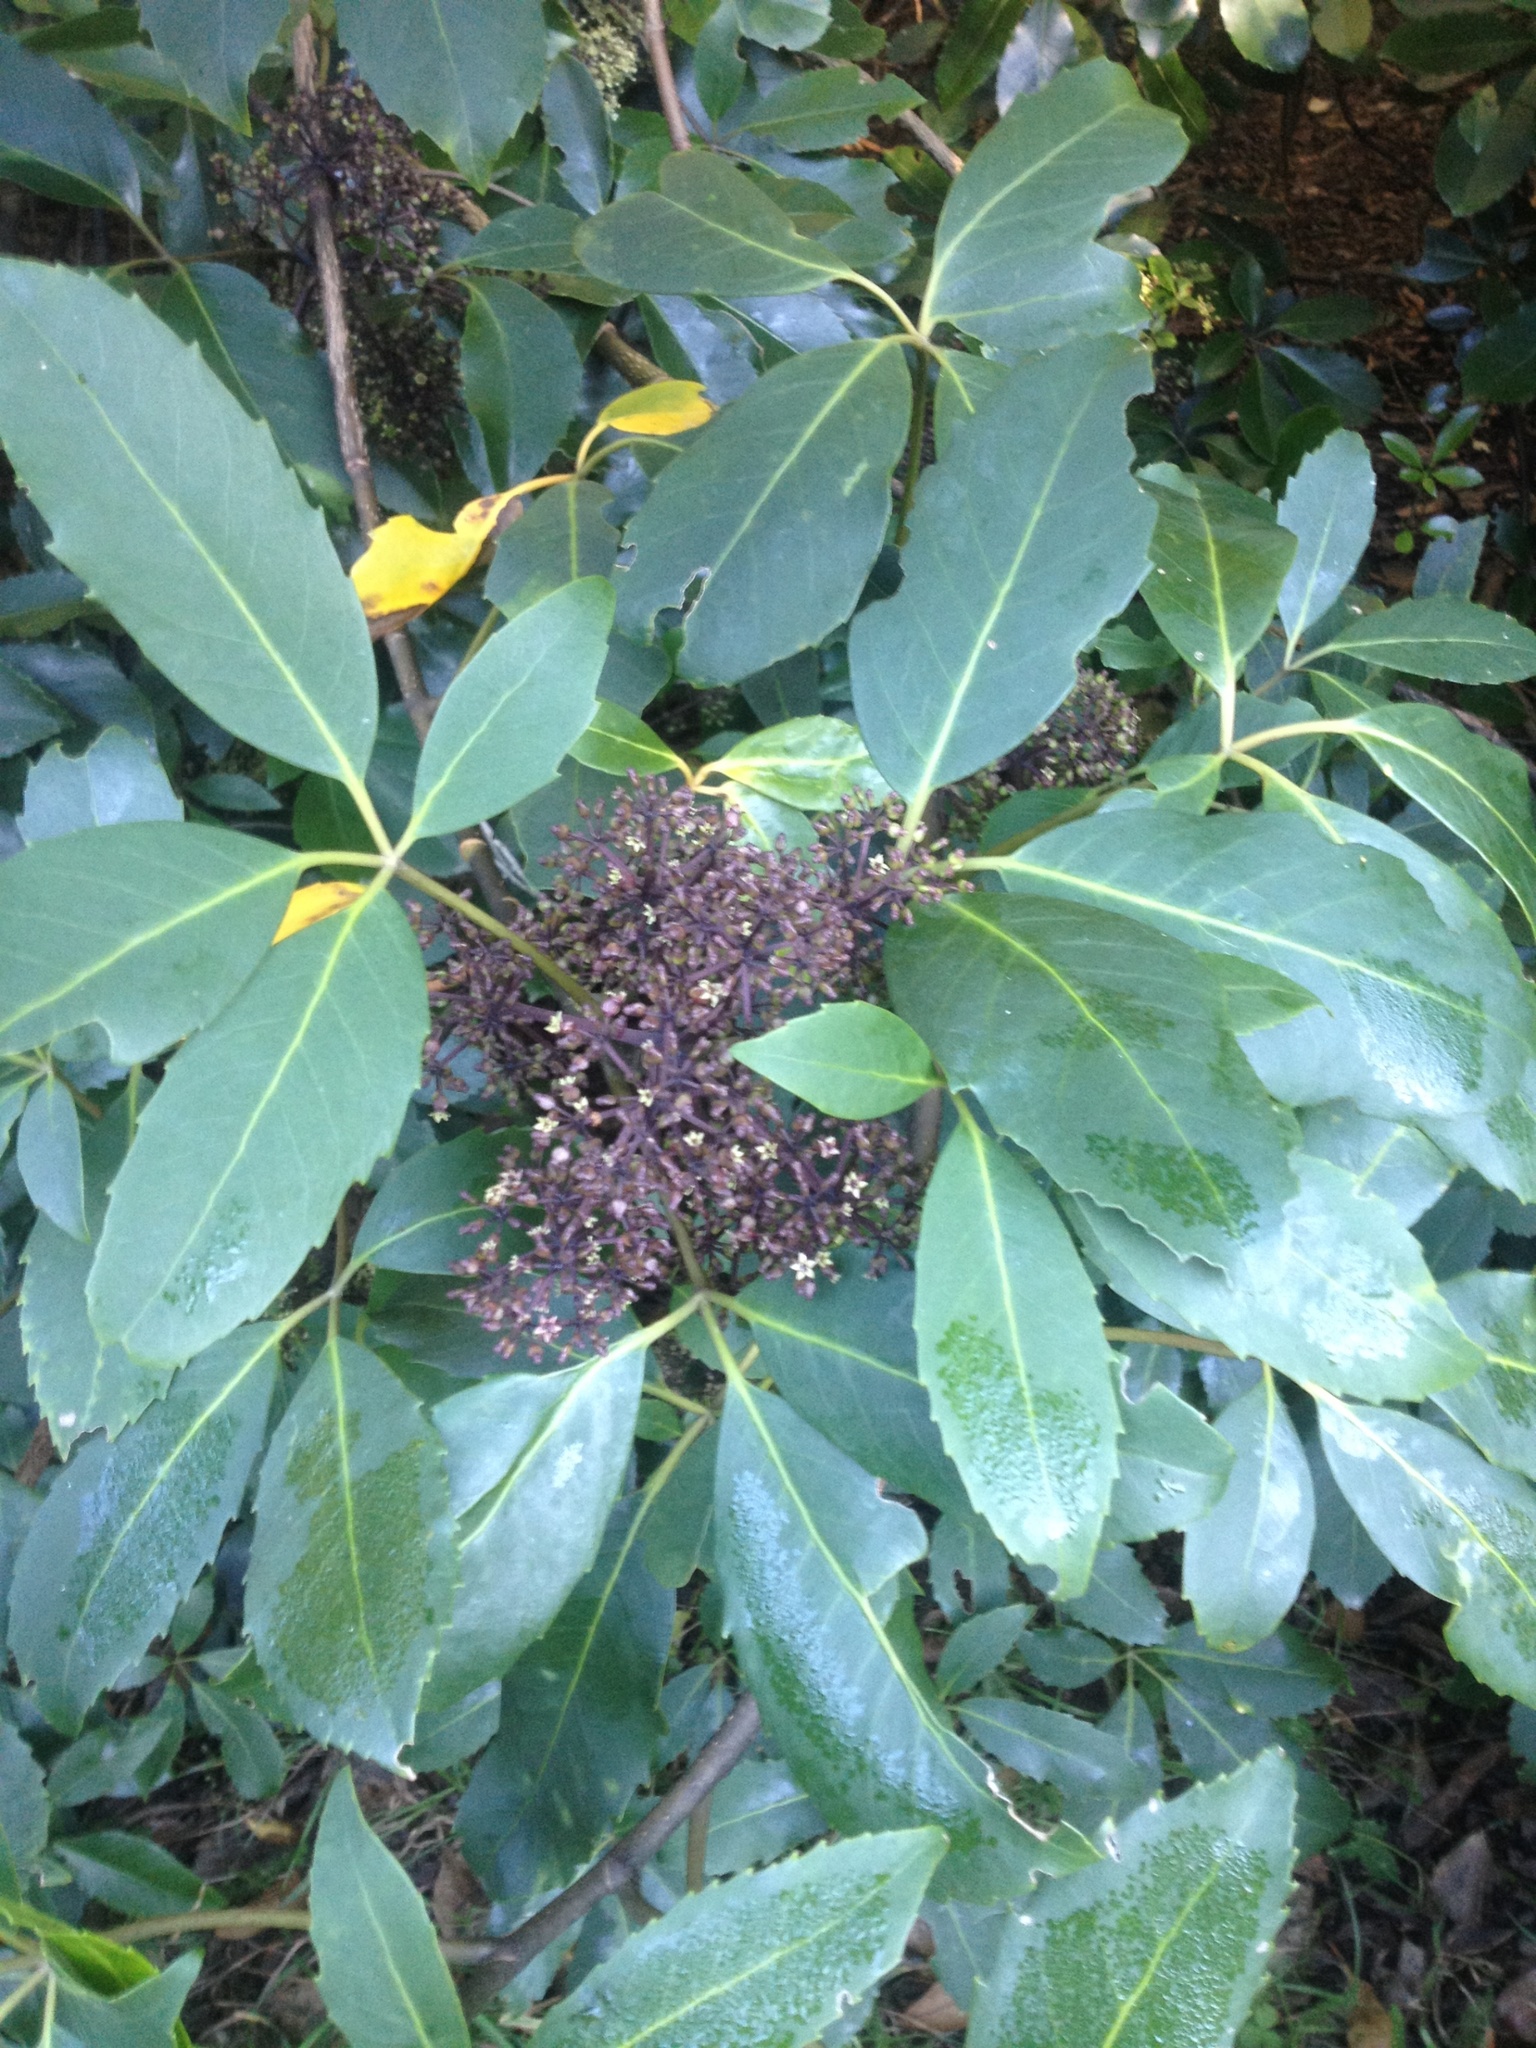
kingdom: Plantae
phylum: Tracheophyta
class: Magnoliopsida
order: Apiales
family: Araliaceae
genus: Neopanax
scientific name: Neopanax arboreus
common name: Five-fingers
